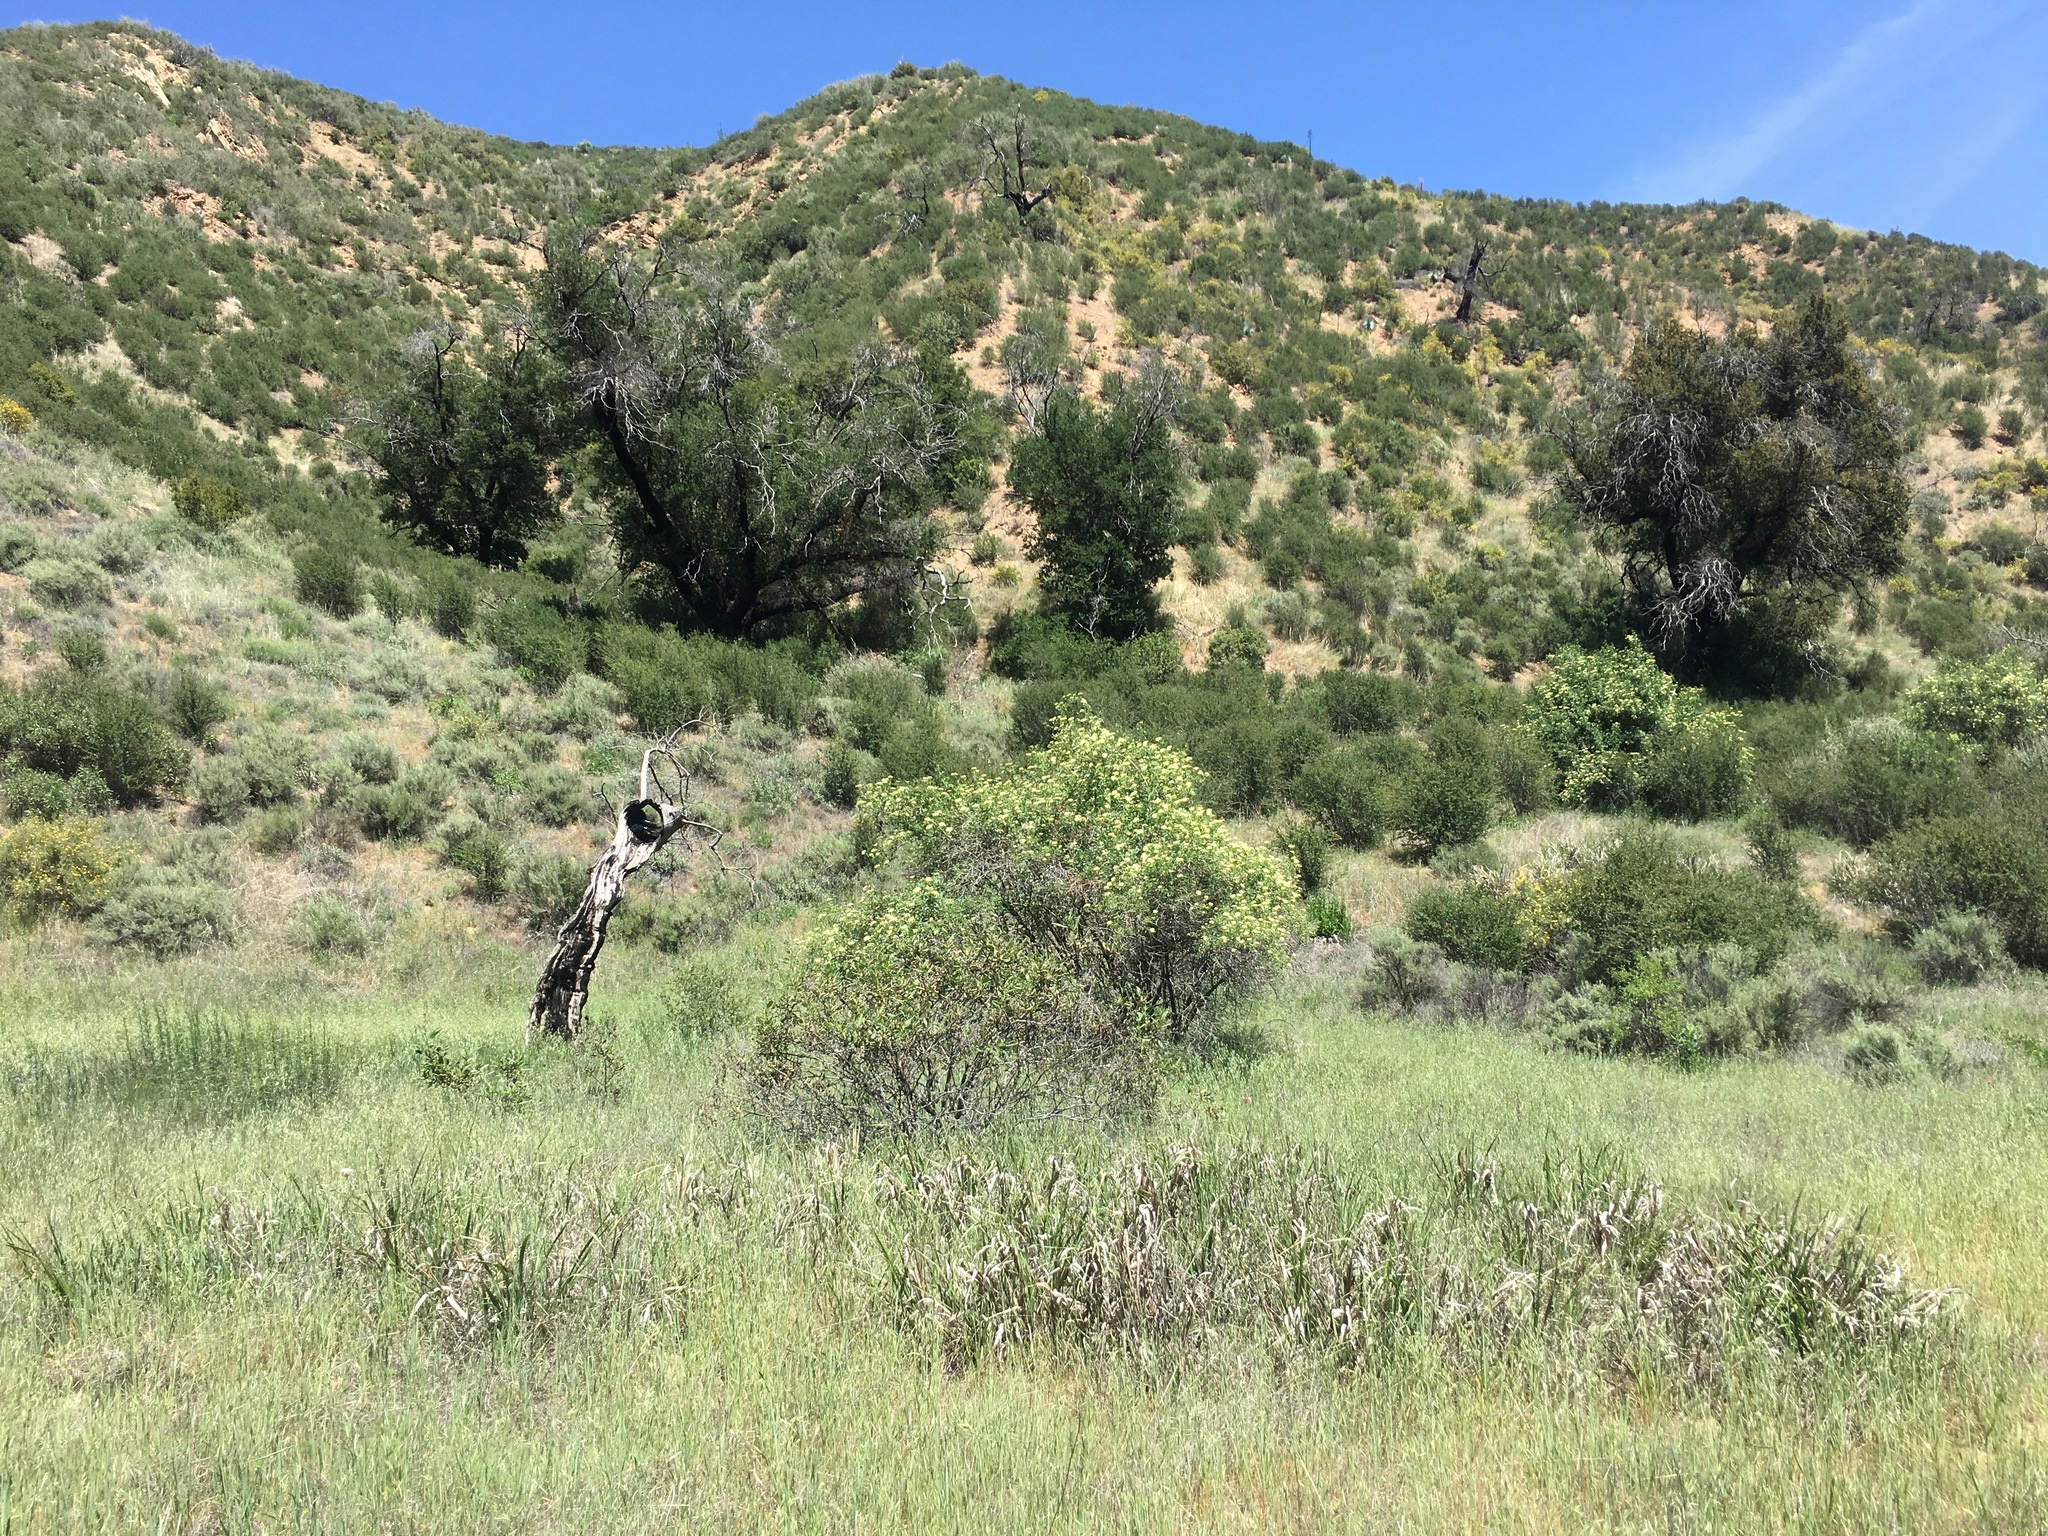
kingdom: Plantae
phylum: Tracheophyta
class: Magnoliopsida
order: Dipsacales
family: Viburnaceae
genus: Sambucus
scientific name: Sambucus cerulea
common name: Blue elder
